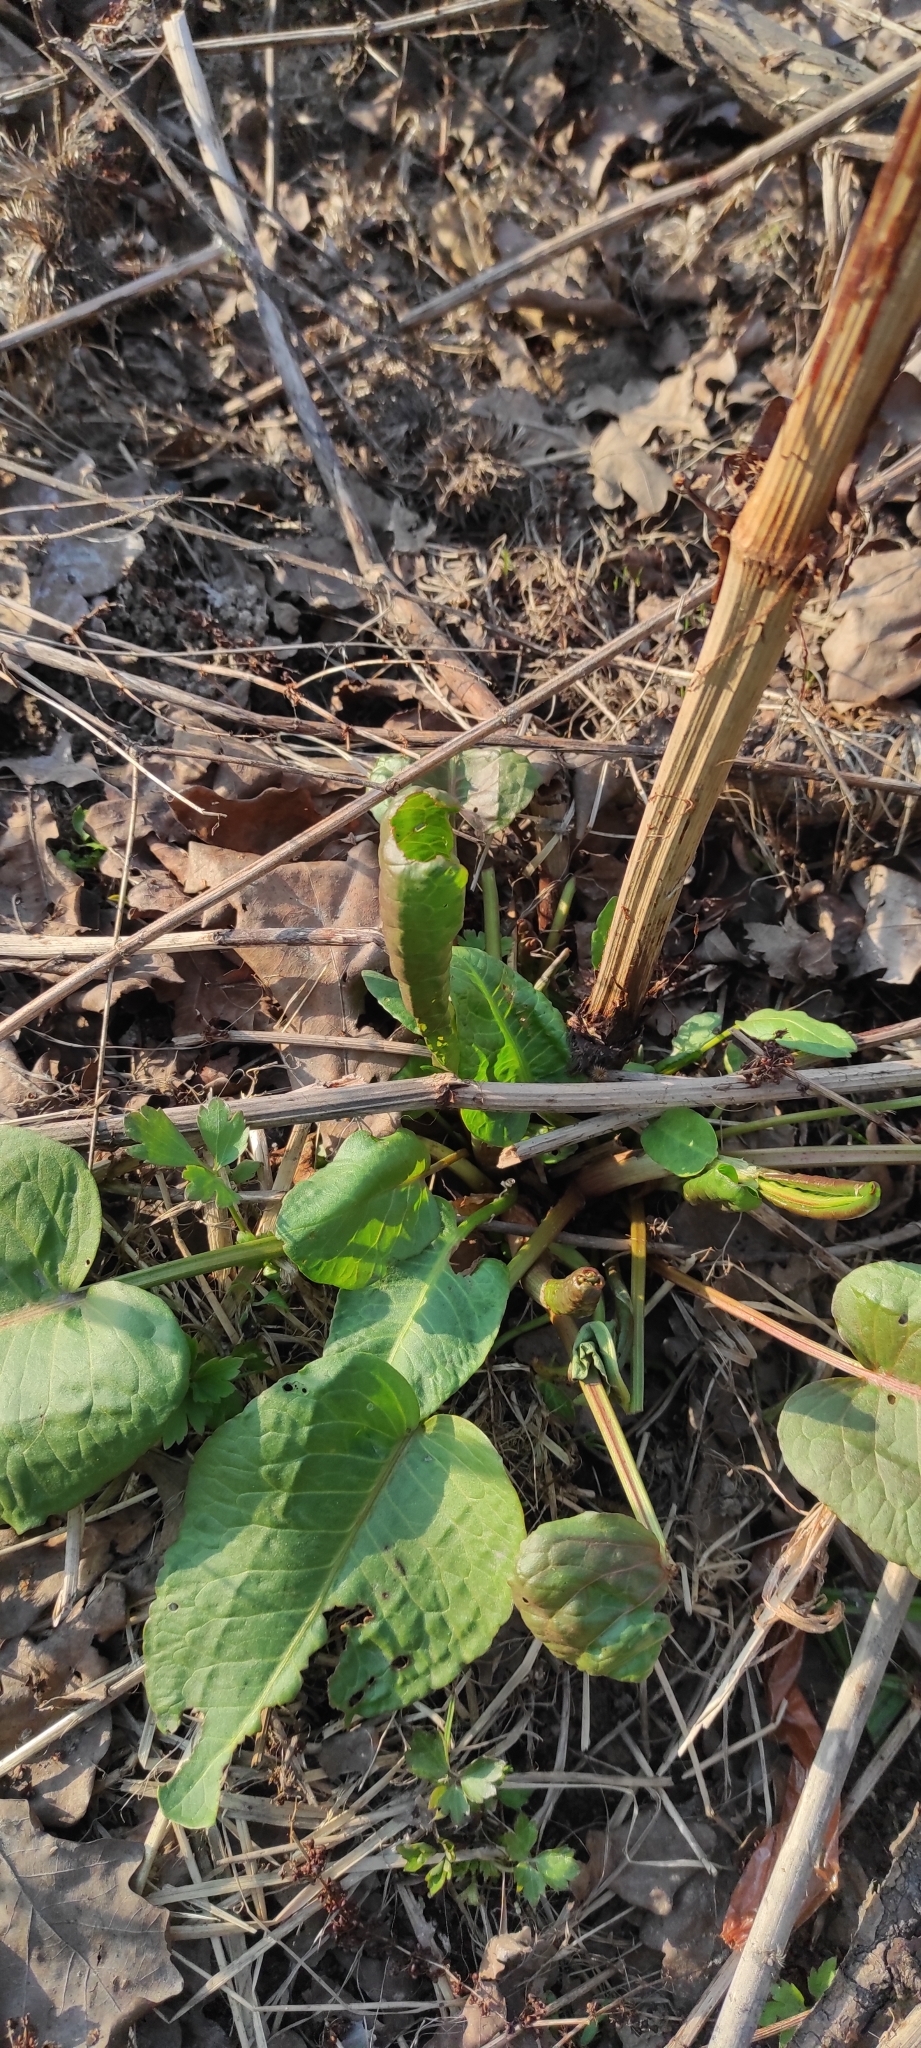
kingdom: Plantae
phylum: Tracheophyta
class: Magnoliopsida
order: Caryophyllales
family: Polygonaceae
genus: Rumex
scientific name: Rumex obtusifolius
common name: Bitter dock
